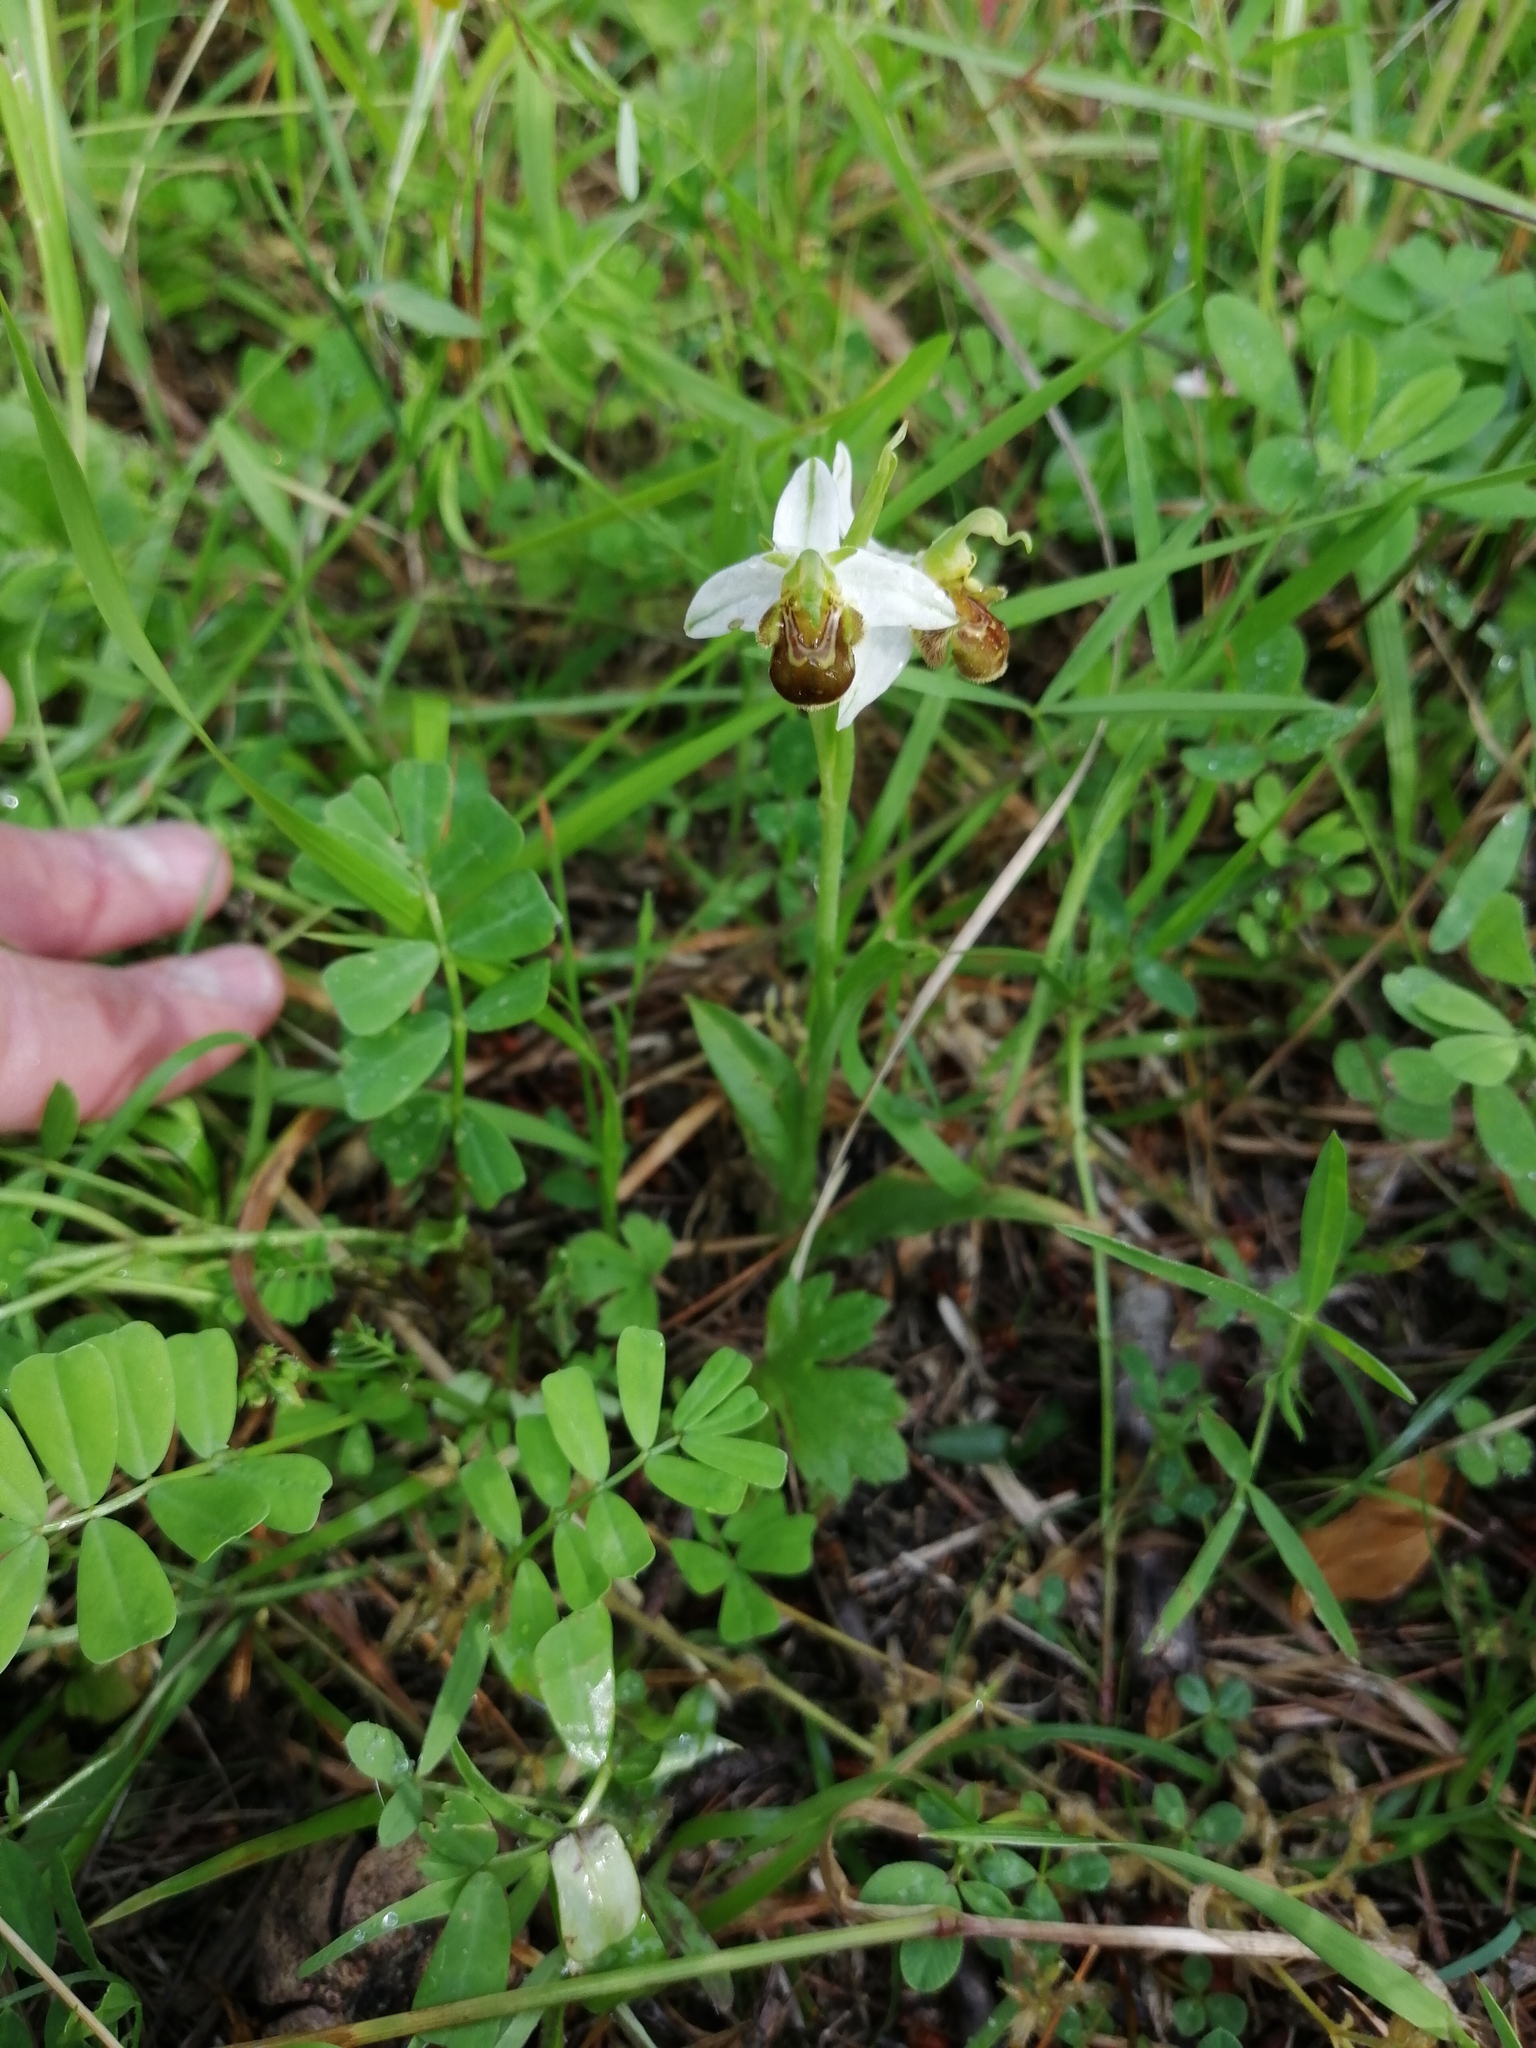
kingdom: Plantae
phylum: Tracheophyta
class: Liliopsida
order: Asparagales
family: Orchidaceae
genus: Ophrys
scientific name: Ophrys apifera
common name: Bee orchid
